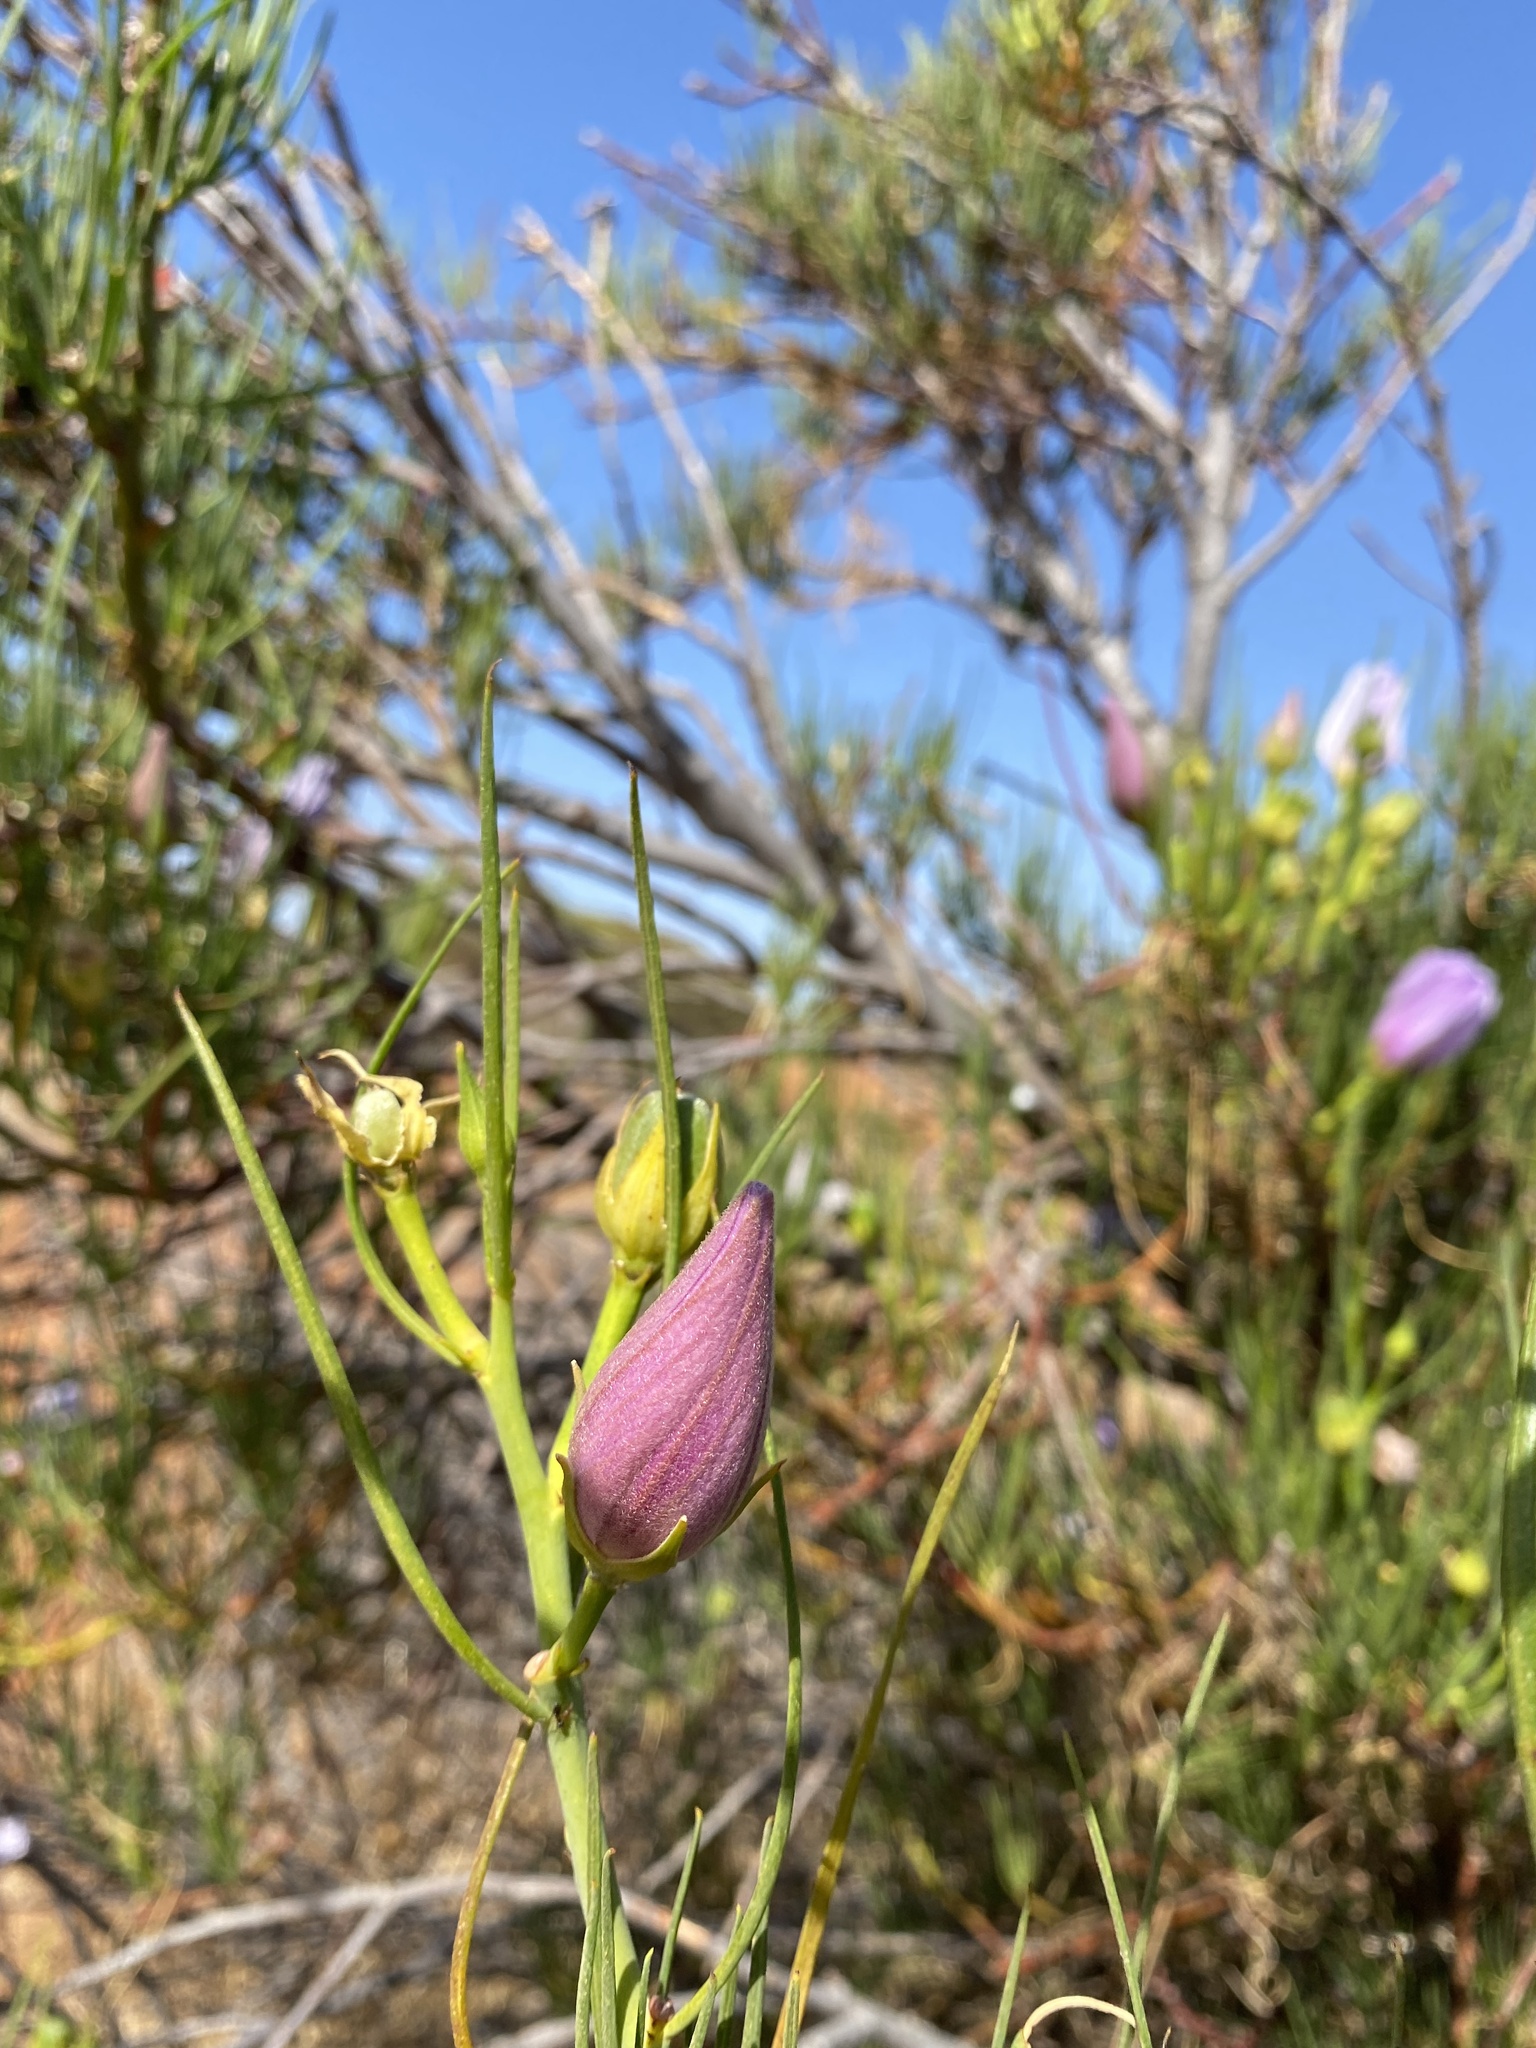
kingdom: Plantae
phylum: Tracheophyta
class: Magnoliopsida
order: Malvales
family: Malvaceae
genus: Hibiscus
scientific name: Hibiscus hakeifolius
